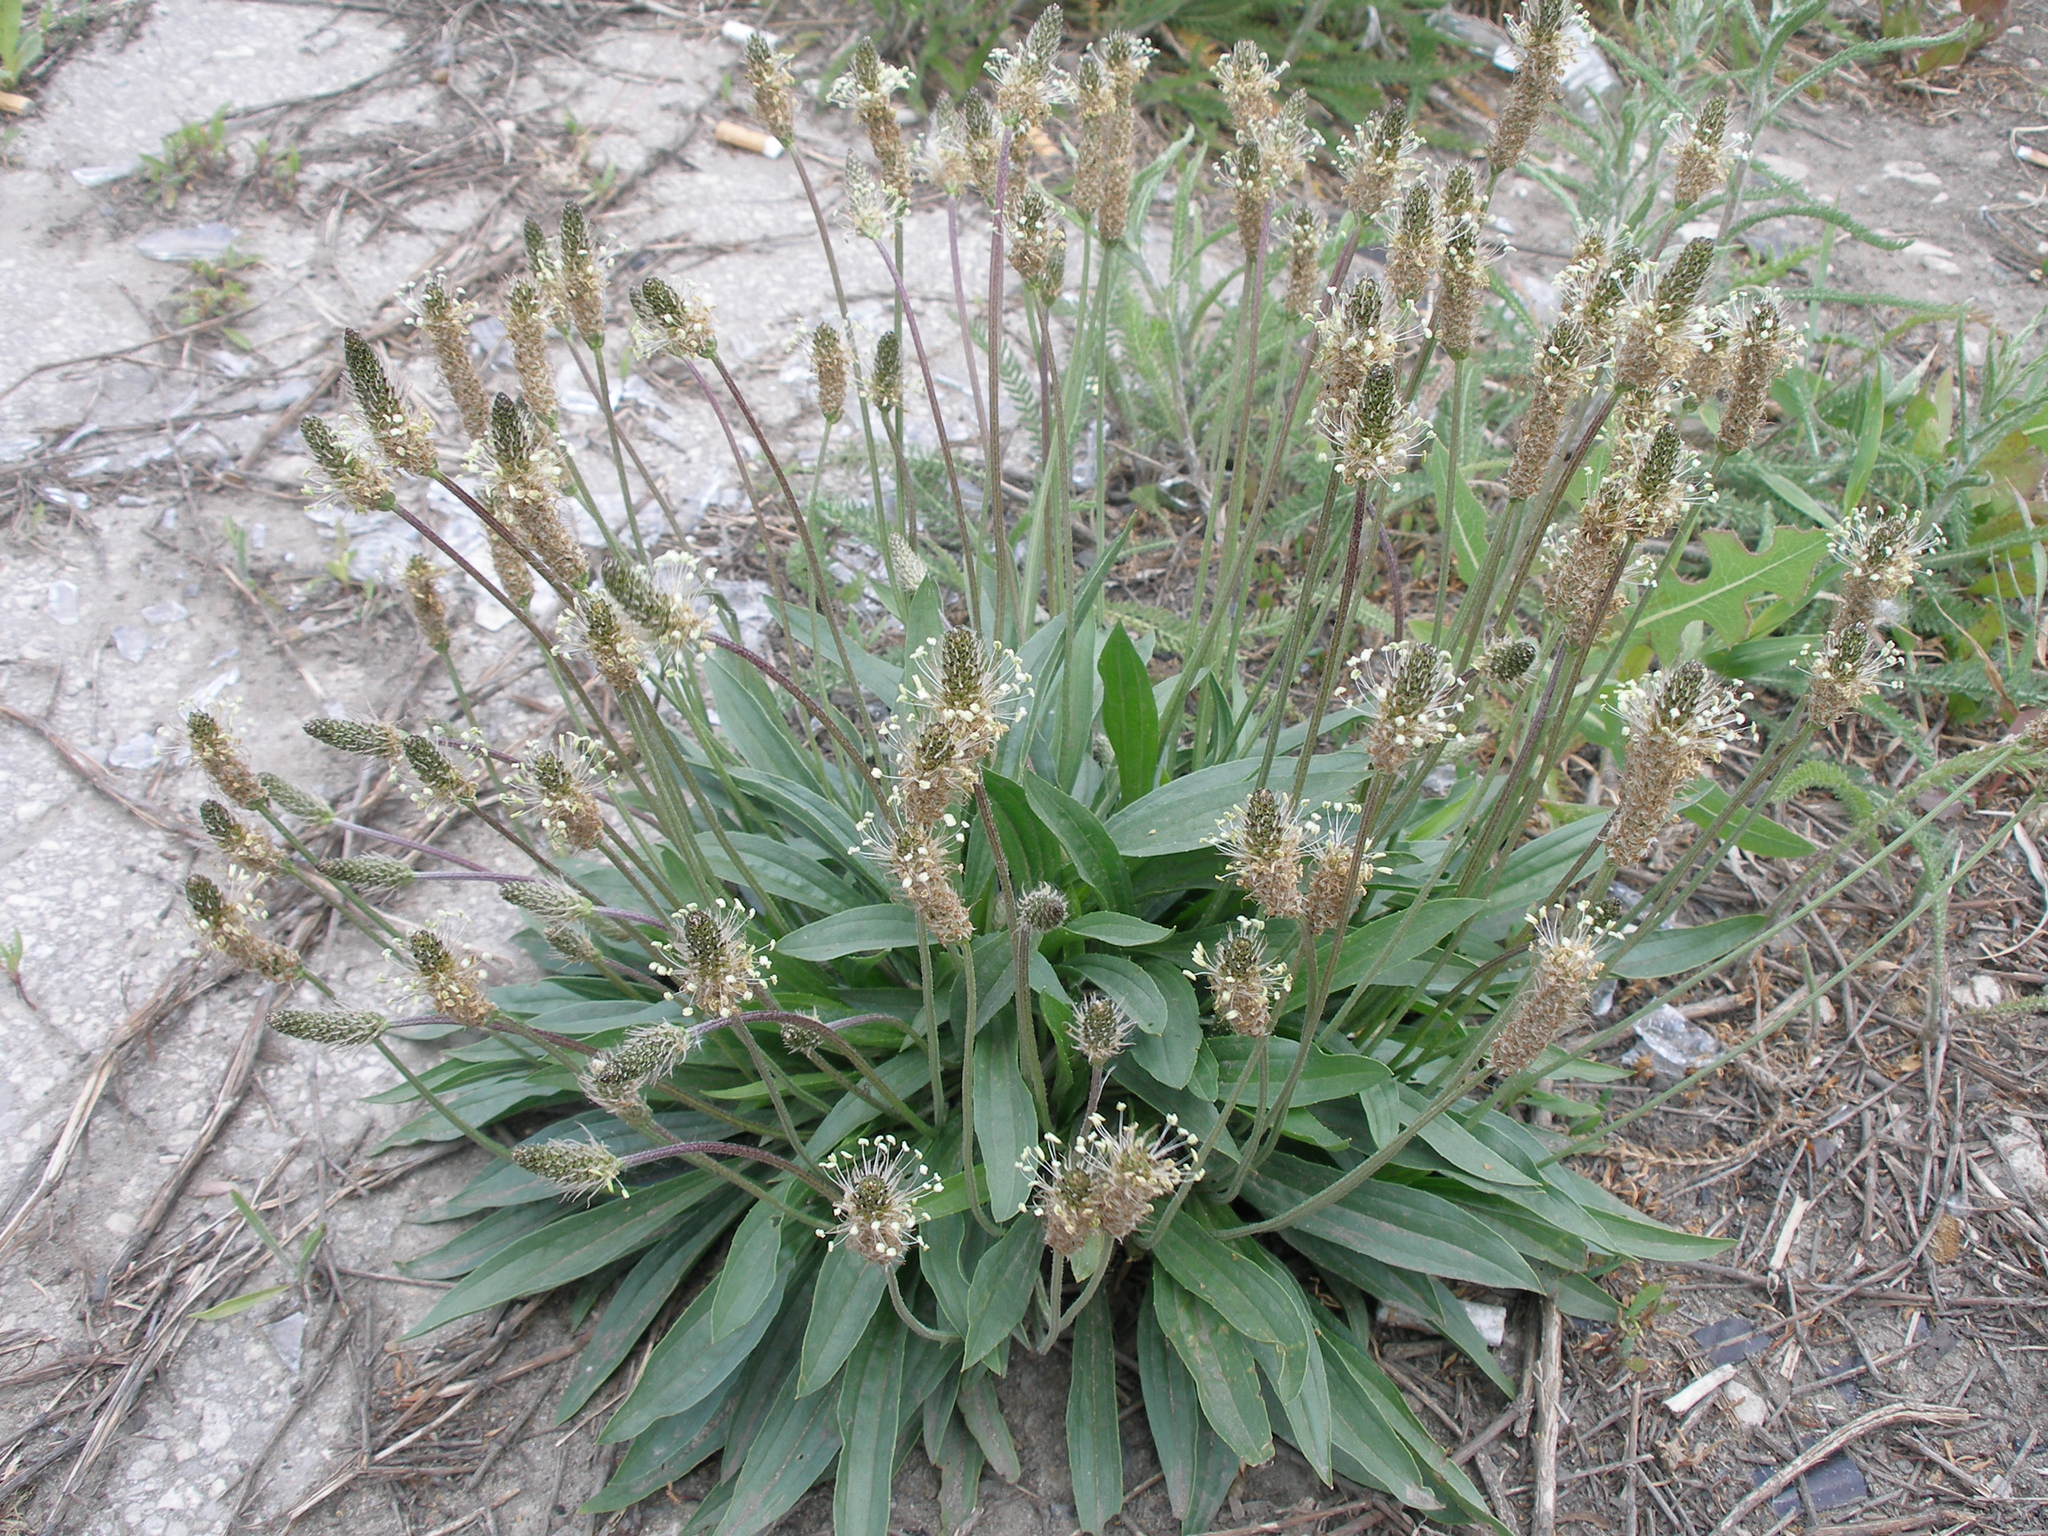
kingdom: Plantae
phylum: Tracheophyta
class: Magnoliopsida
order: Lamiales
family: Plantaginaceae
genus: Plantago
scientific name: Plantago lanceolata
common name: Ribwort plantain
